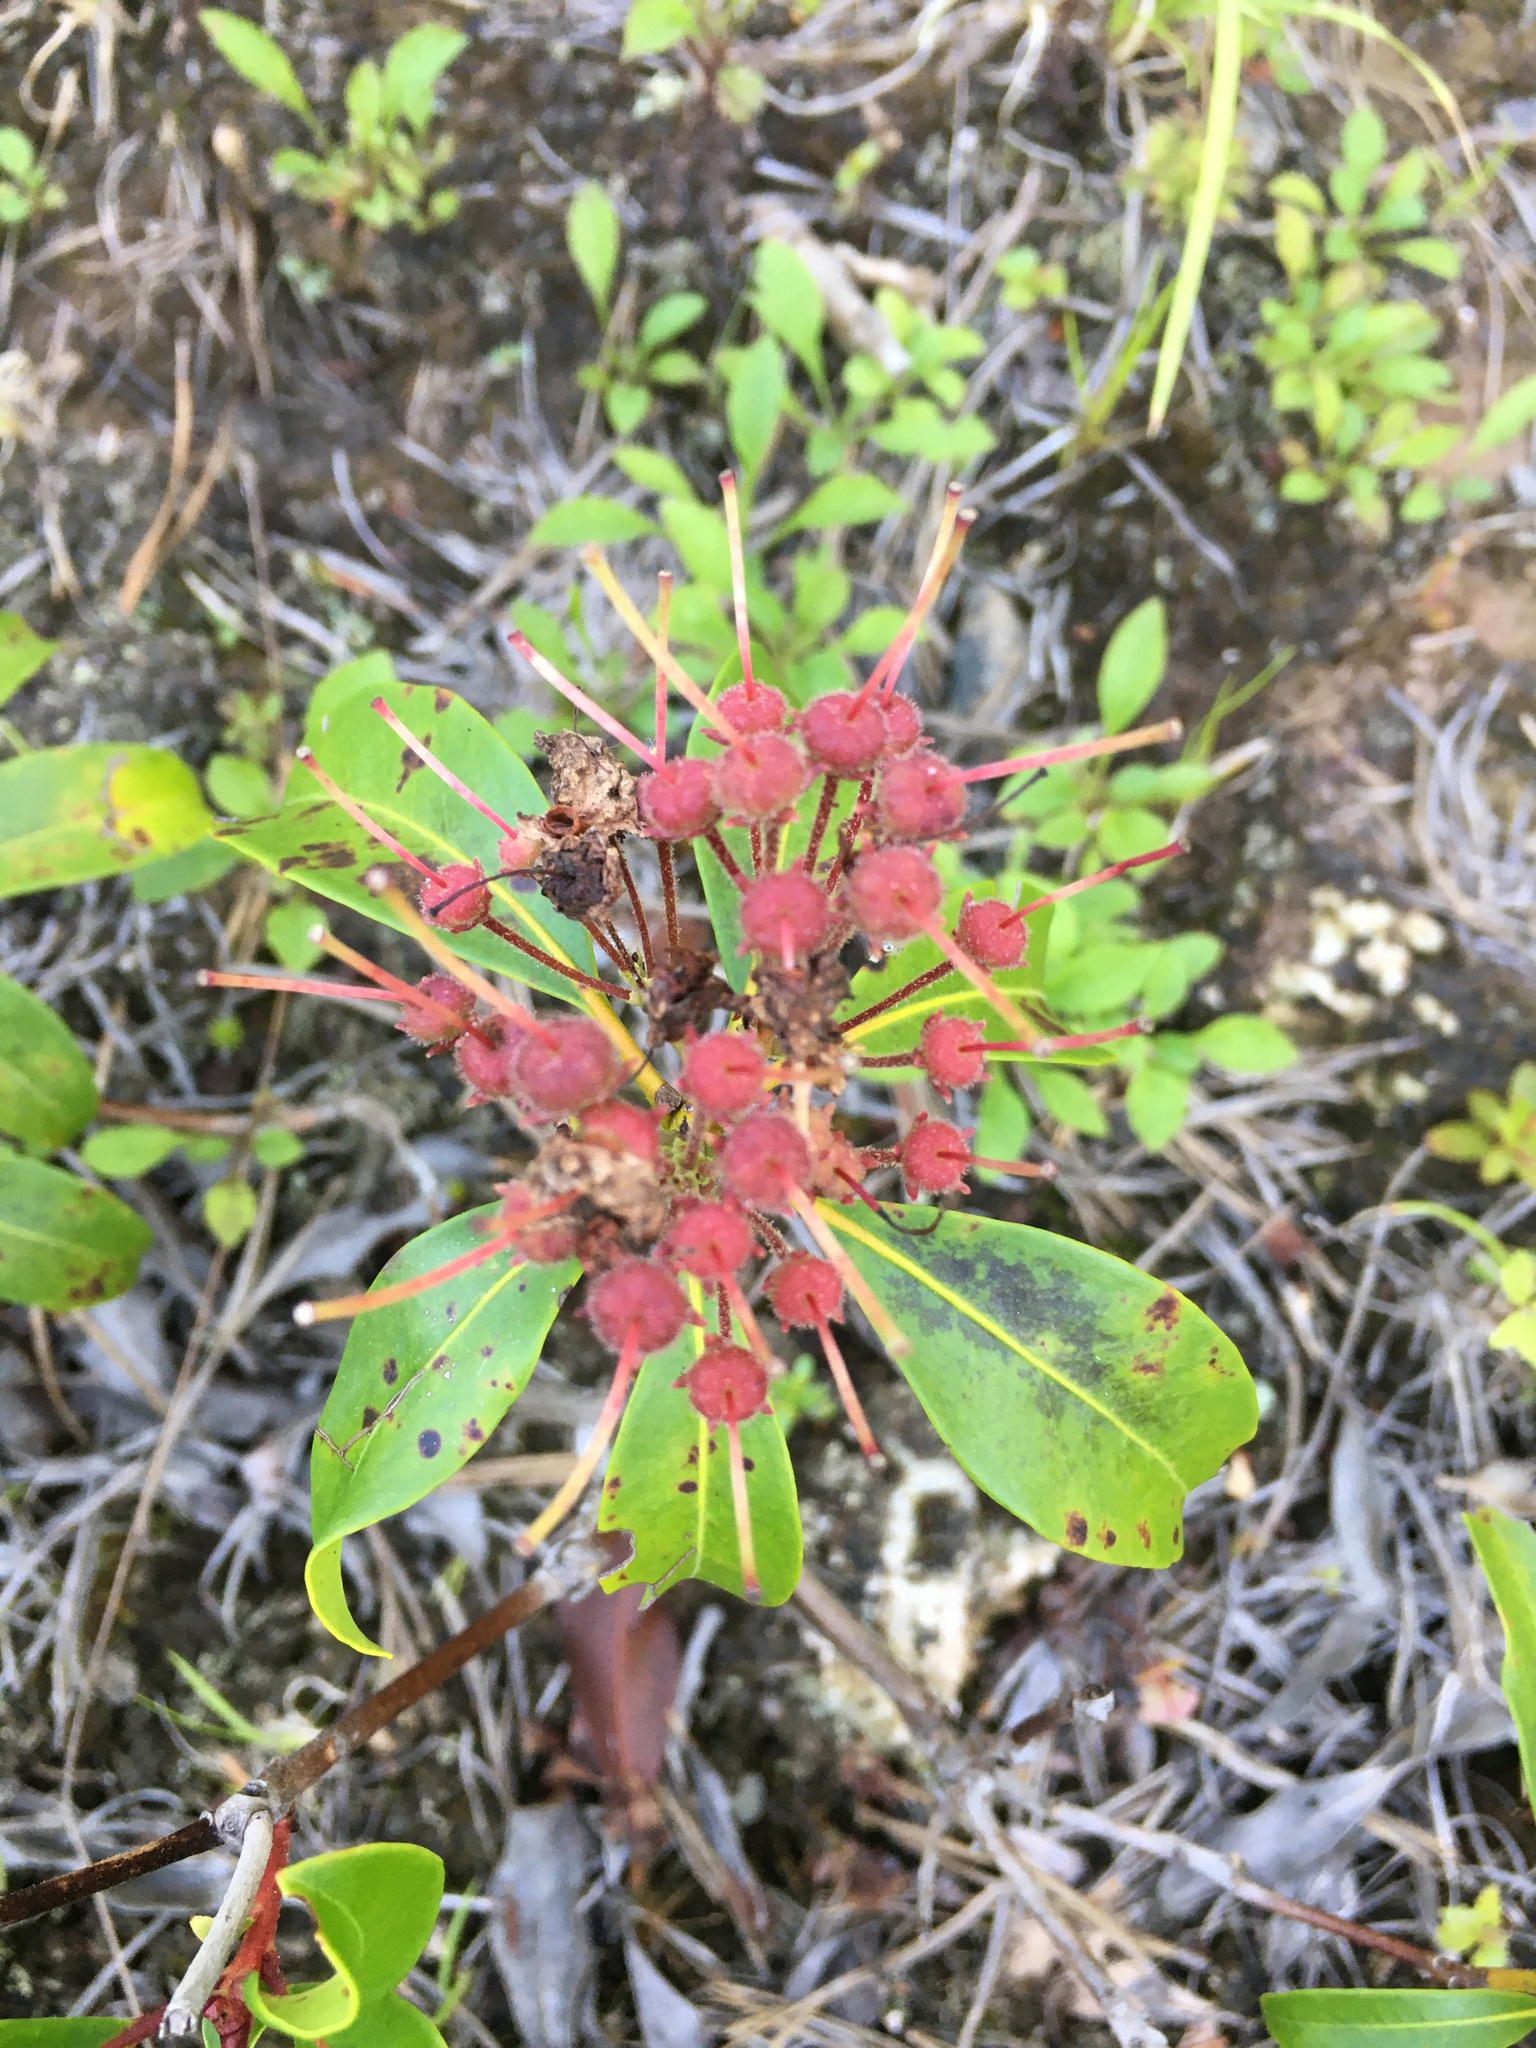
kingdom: Plantae
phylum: Tracheophyta
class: Magnoliopsida
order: Ericales
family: Ericaceae
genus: Kalmia
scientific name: Kalmia latifolia
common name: Mountain-laurel
